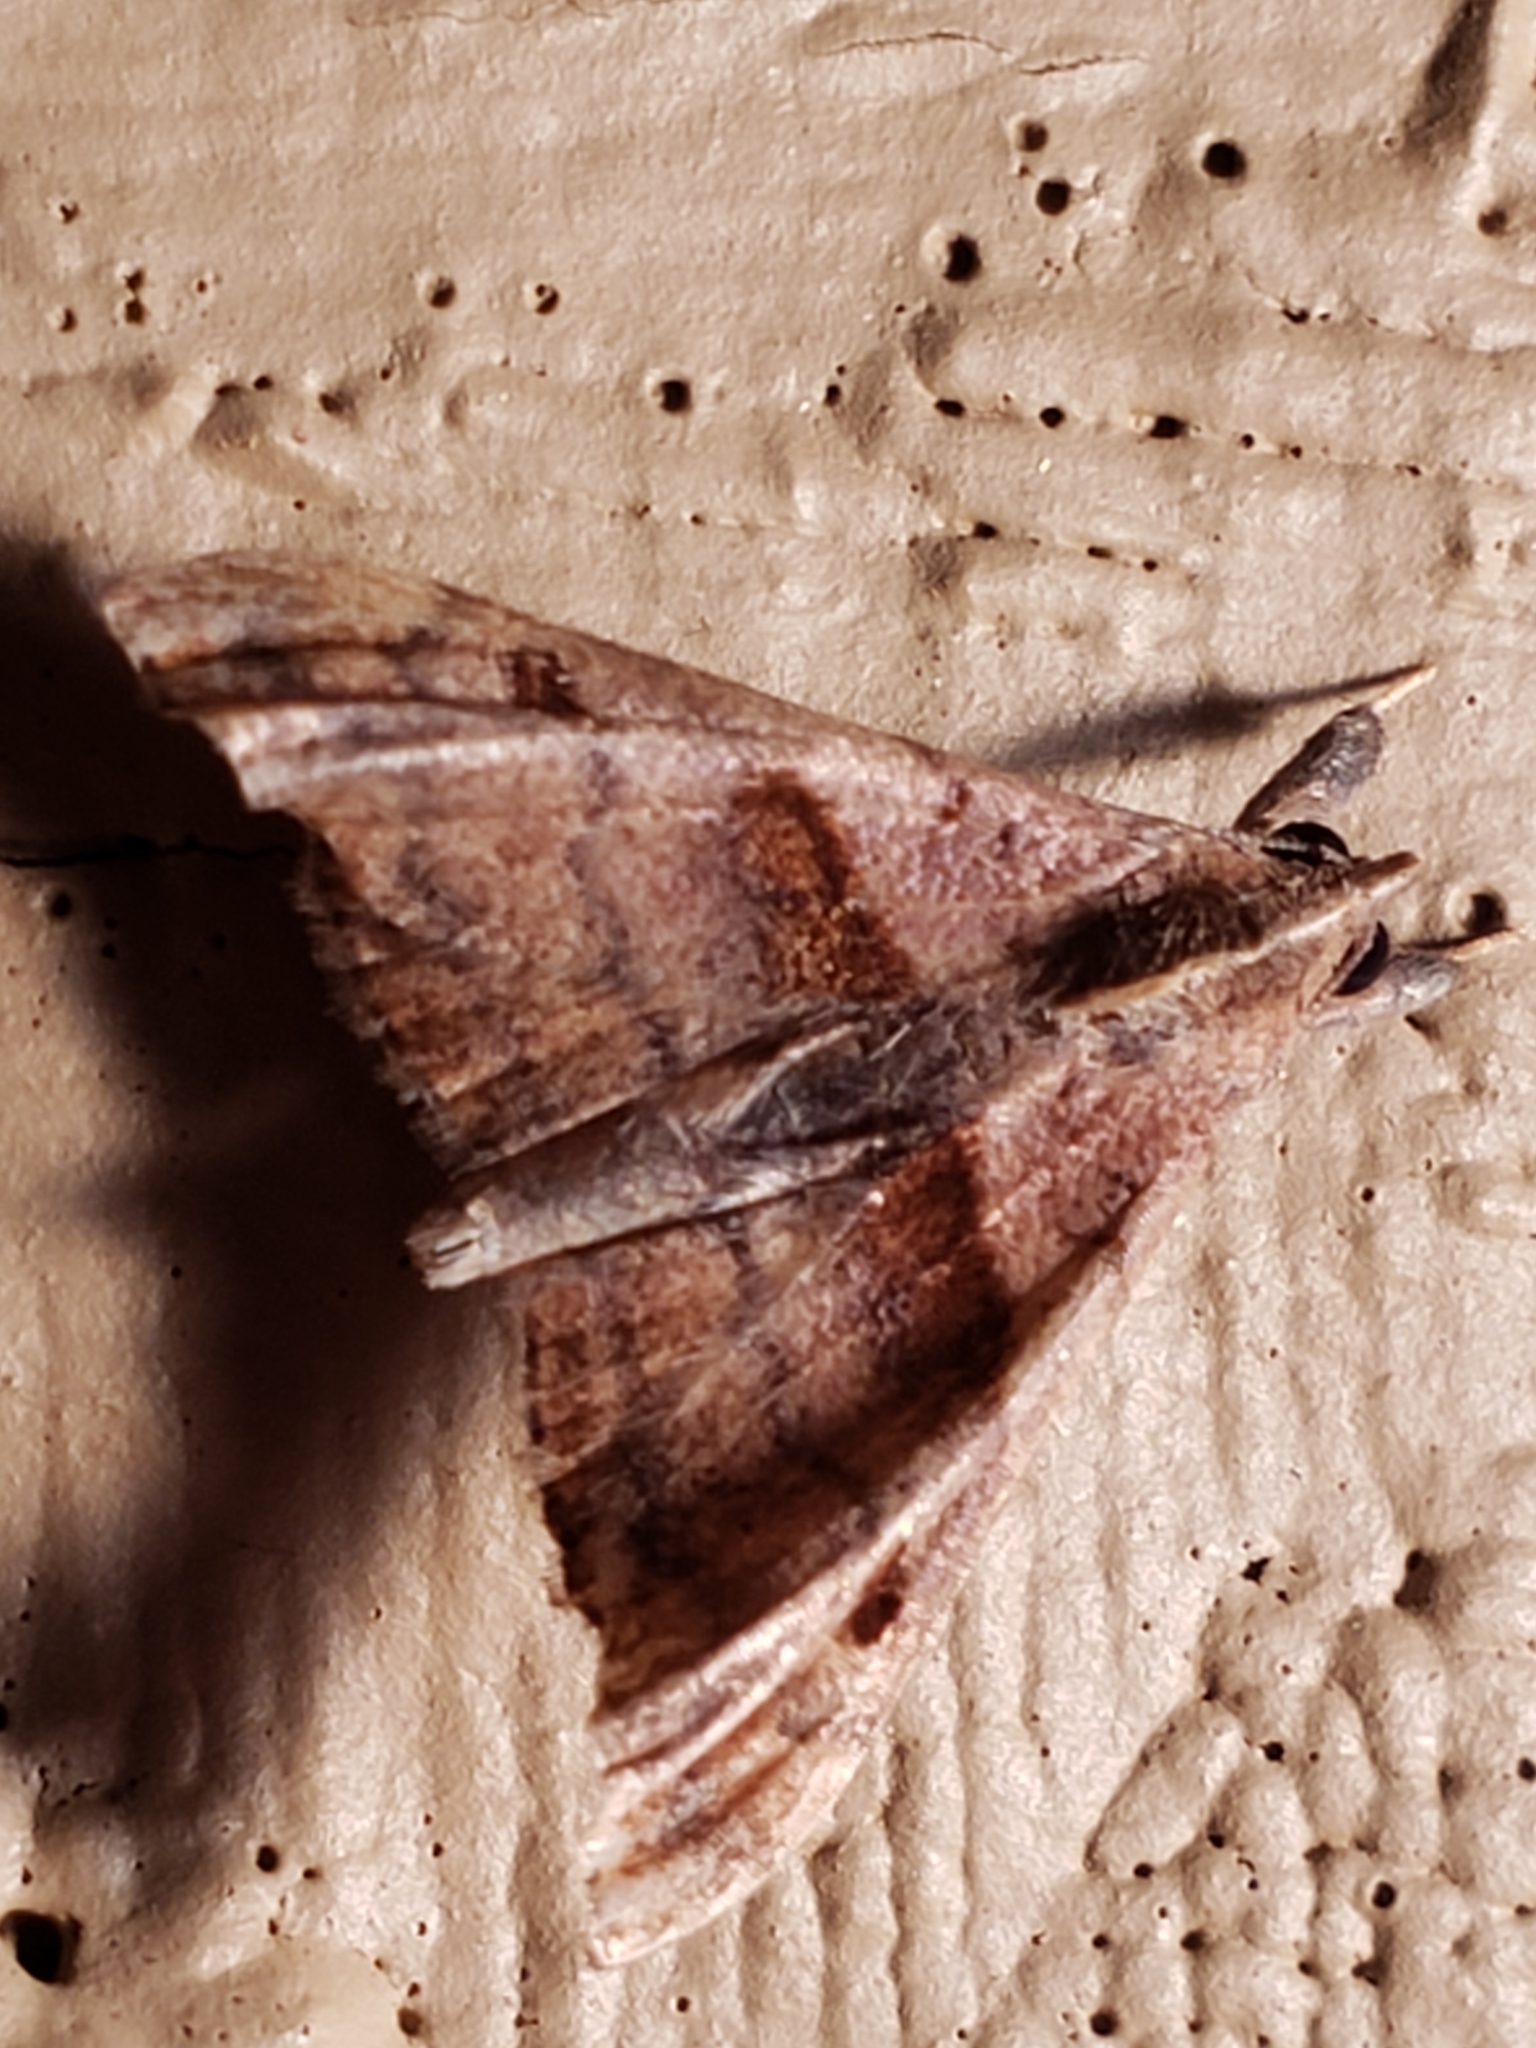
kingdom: Animalia
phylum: Arthropoda
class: Insecta
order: Lepidoptera
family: Erebidae
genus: Palthis
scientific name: Palthis angulalis
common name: Dark-spotted palthis moth
